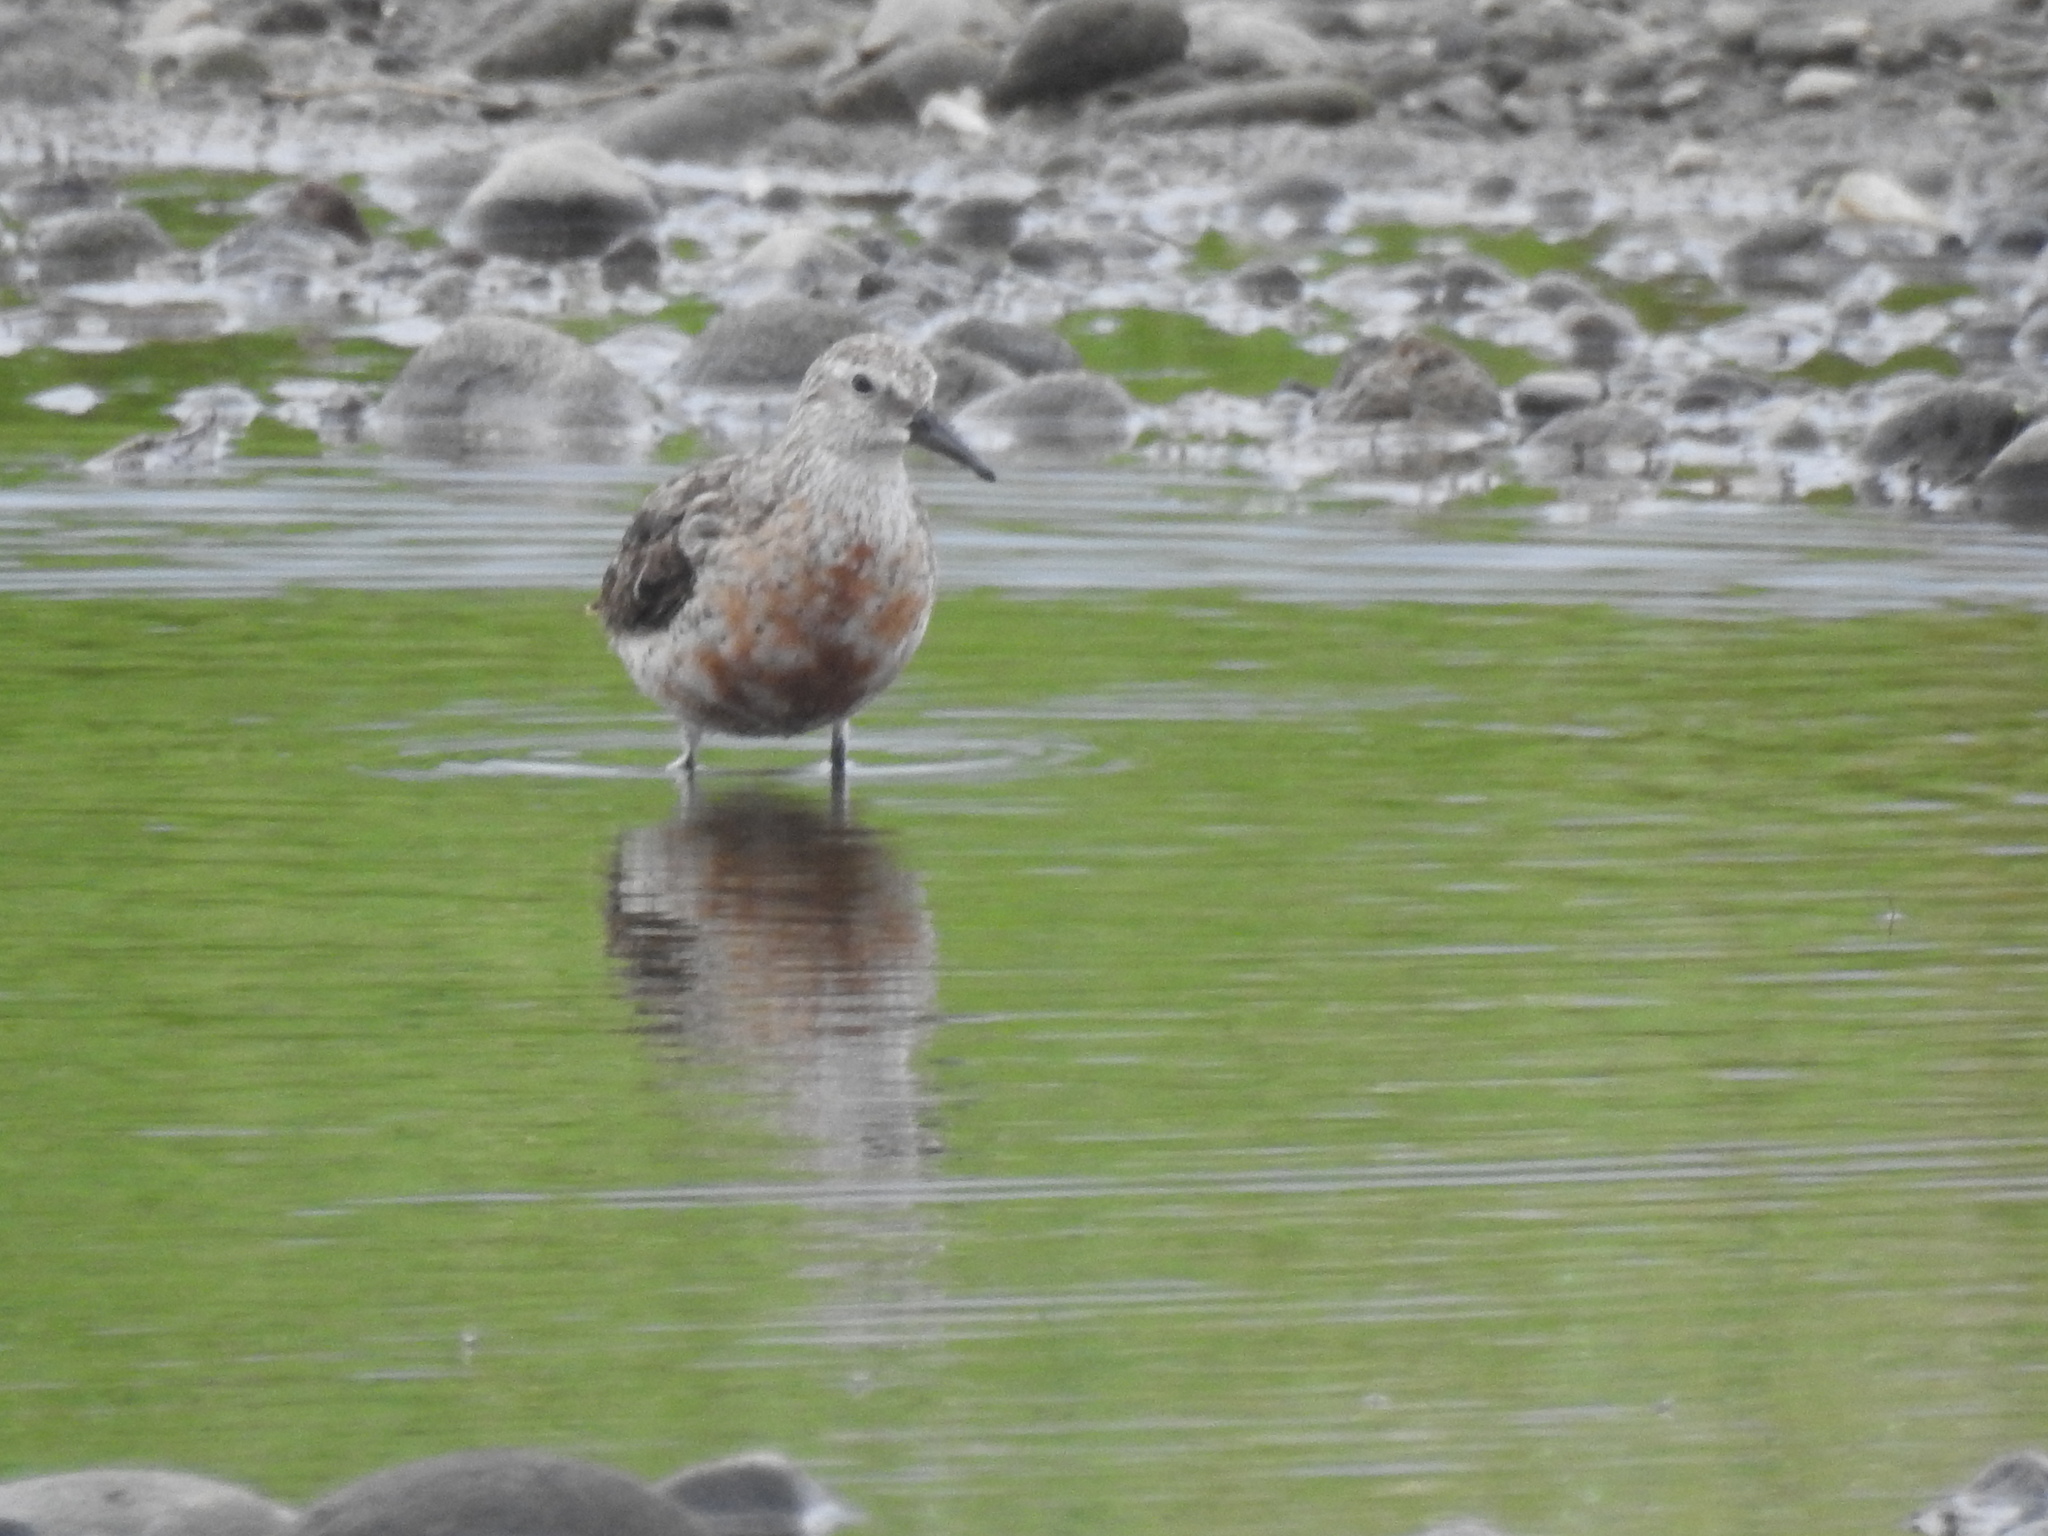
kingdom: Animalia
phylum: Chordata
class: Aves
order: Charadriiformes
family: Scolopacidae
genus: Calidris
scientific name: Calidris canutus
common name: Red knot
